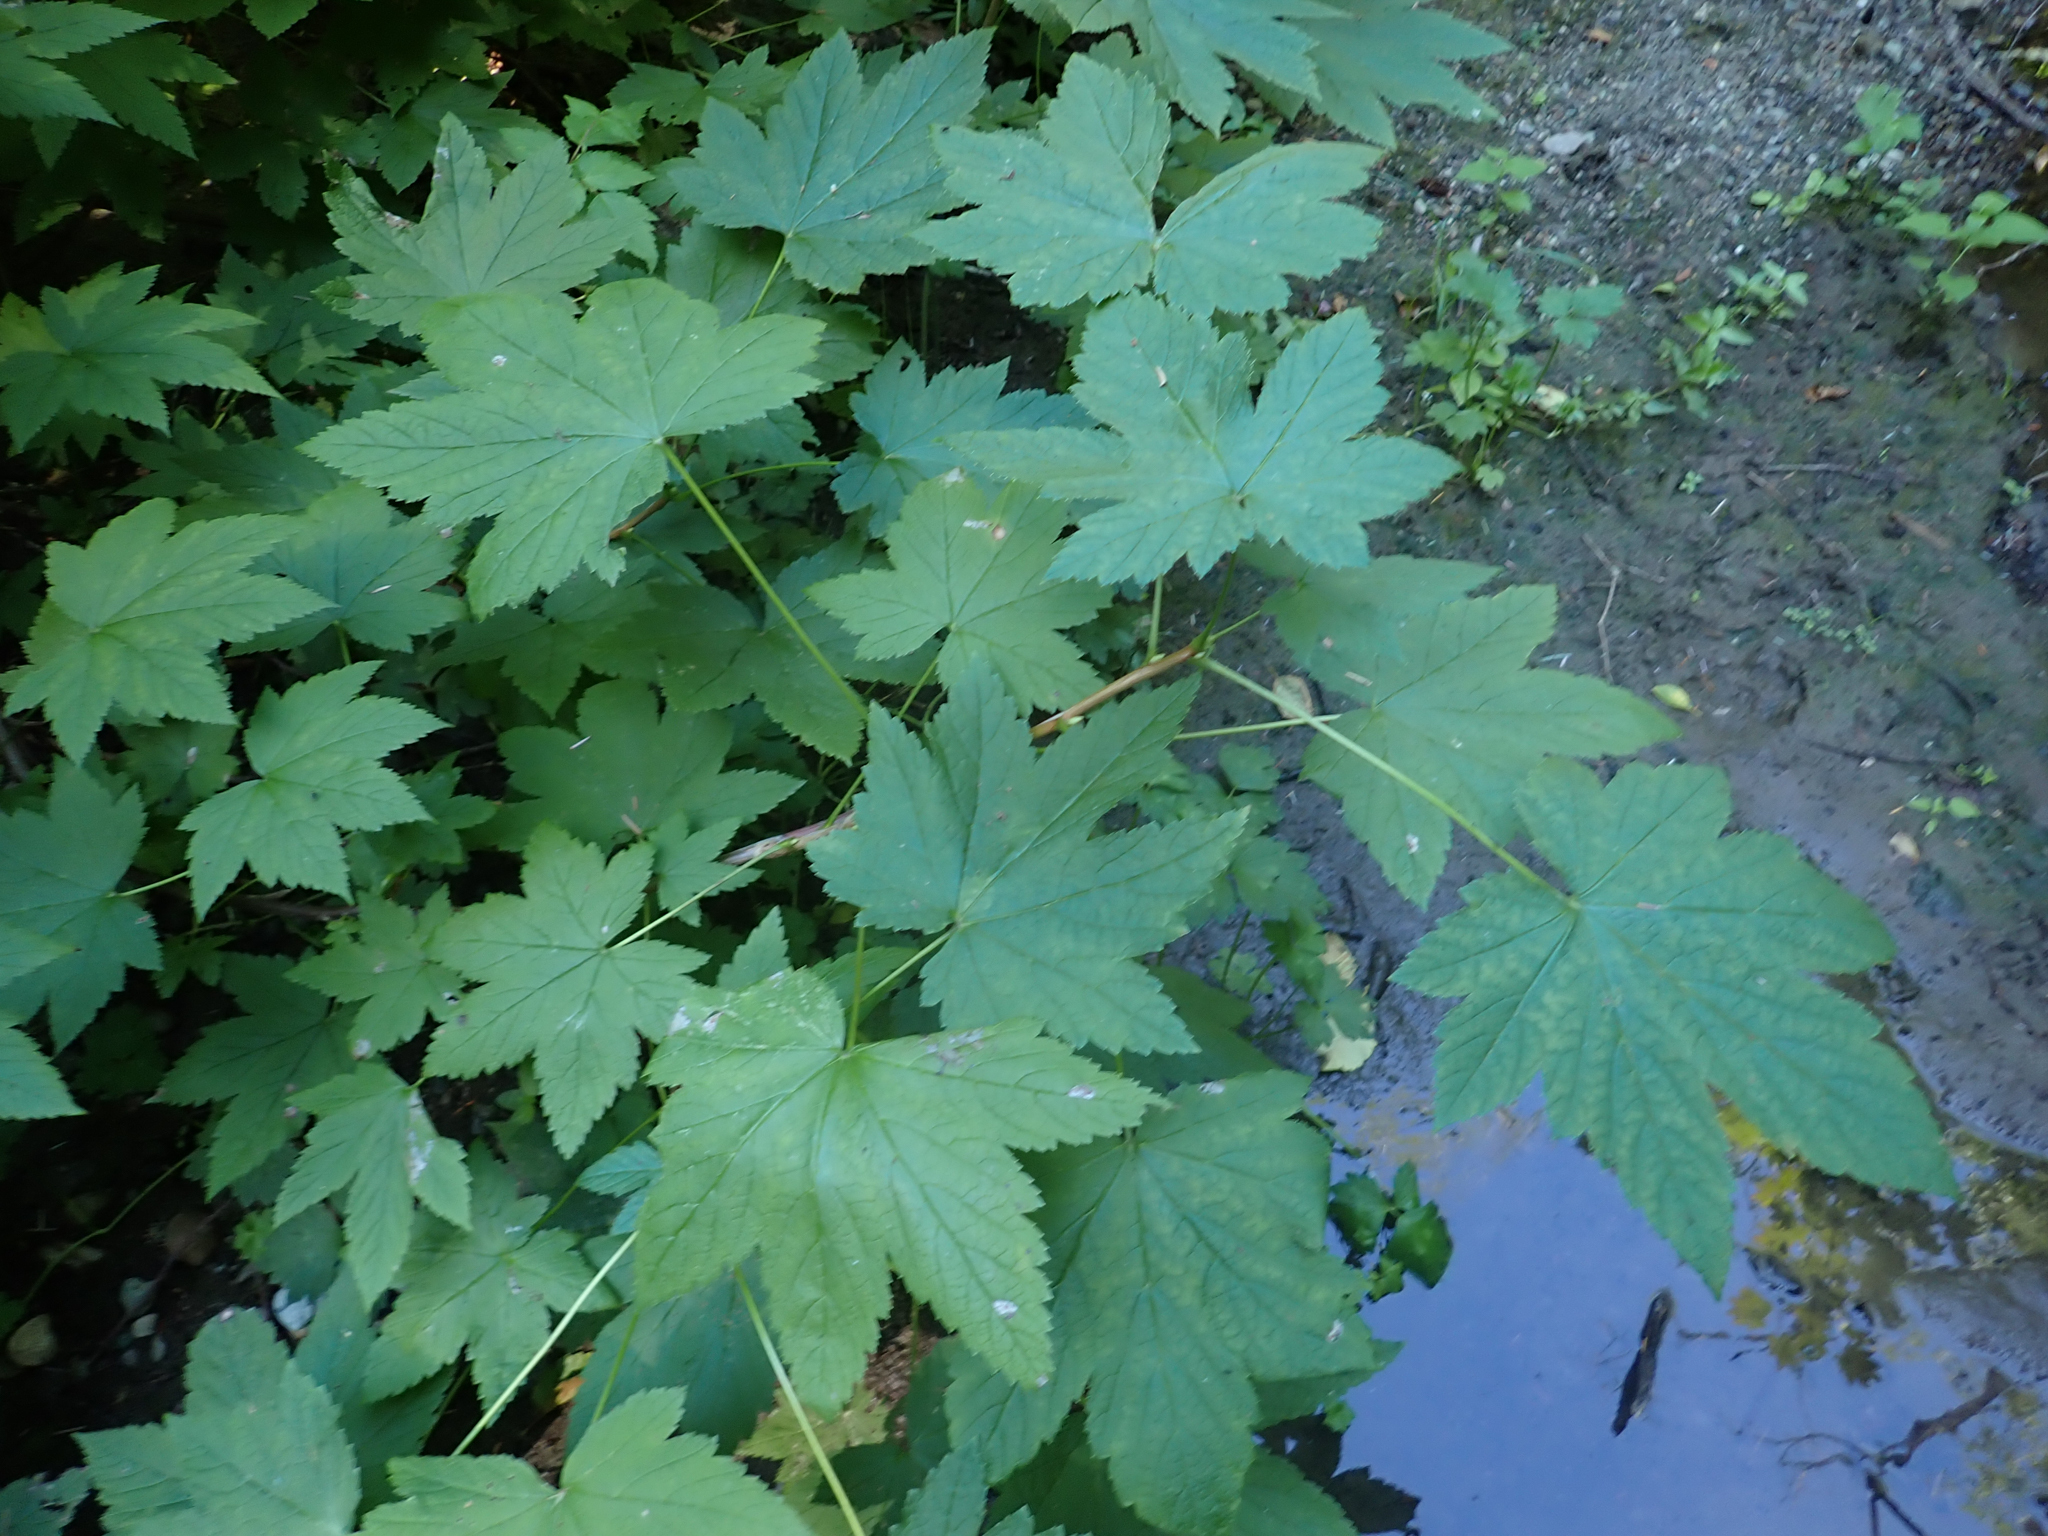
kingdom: Plantae
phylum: Tracheophyta
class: Magnoliopsida
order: Saxifragales
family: Grossulariaceae
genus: Ribes
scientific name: Ribes bracteosum
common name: California black currant
